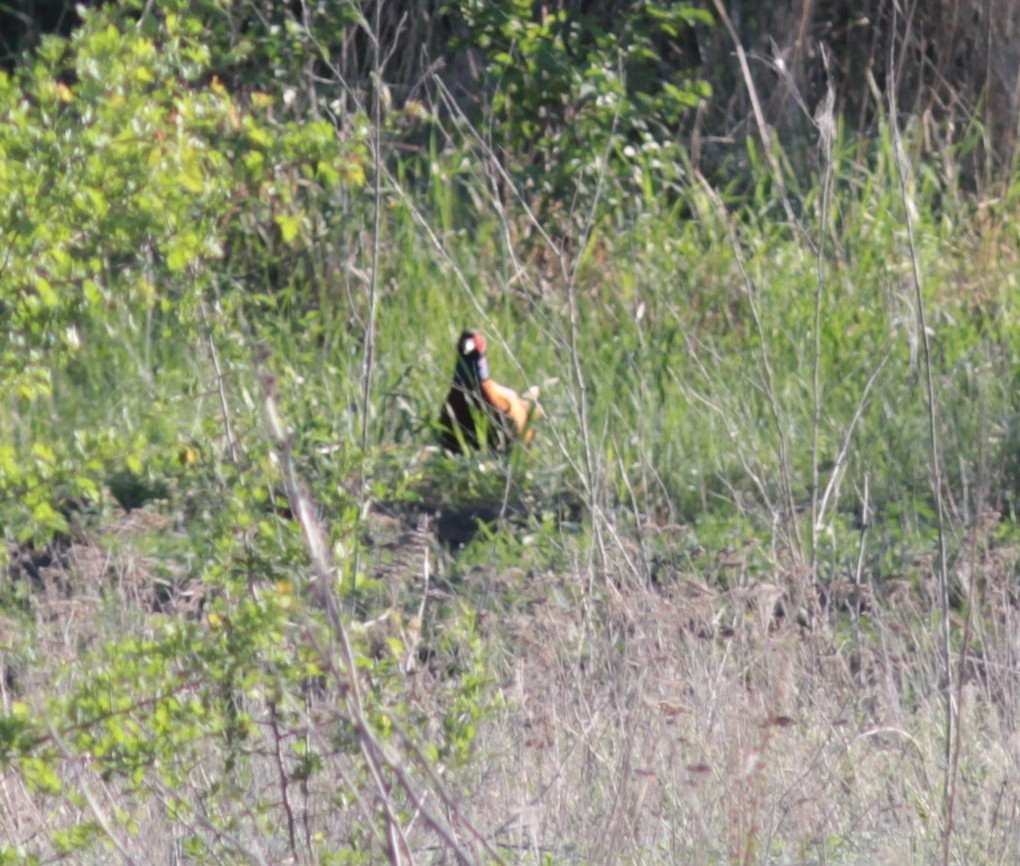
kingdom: Animalia
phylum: Chordata
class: Aves
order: Galliformes
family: Phasianidae
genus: Phasianus
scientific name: Phasianus colchicus
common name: Common pheasant
